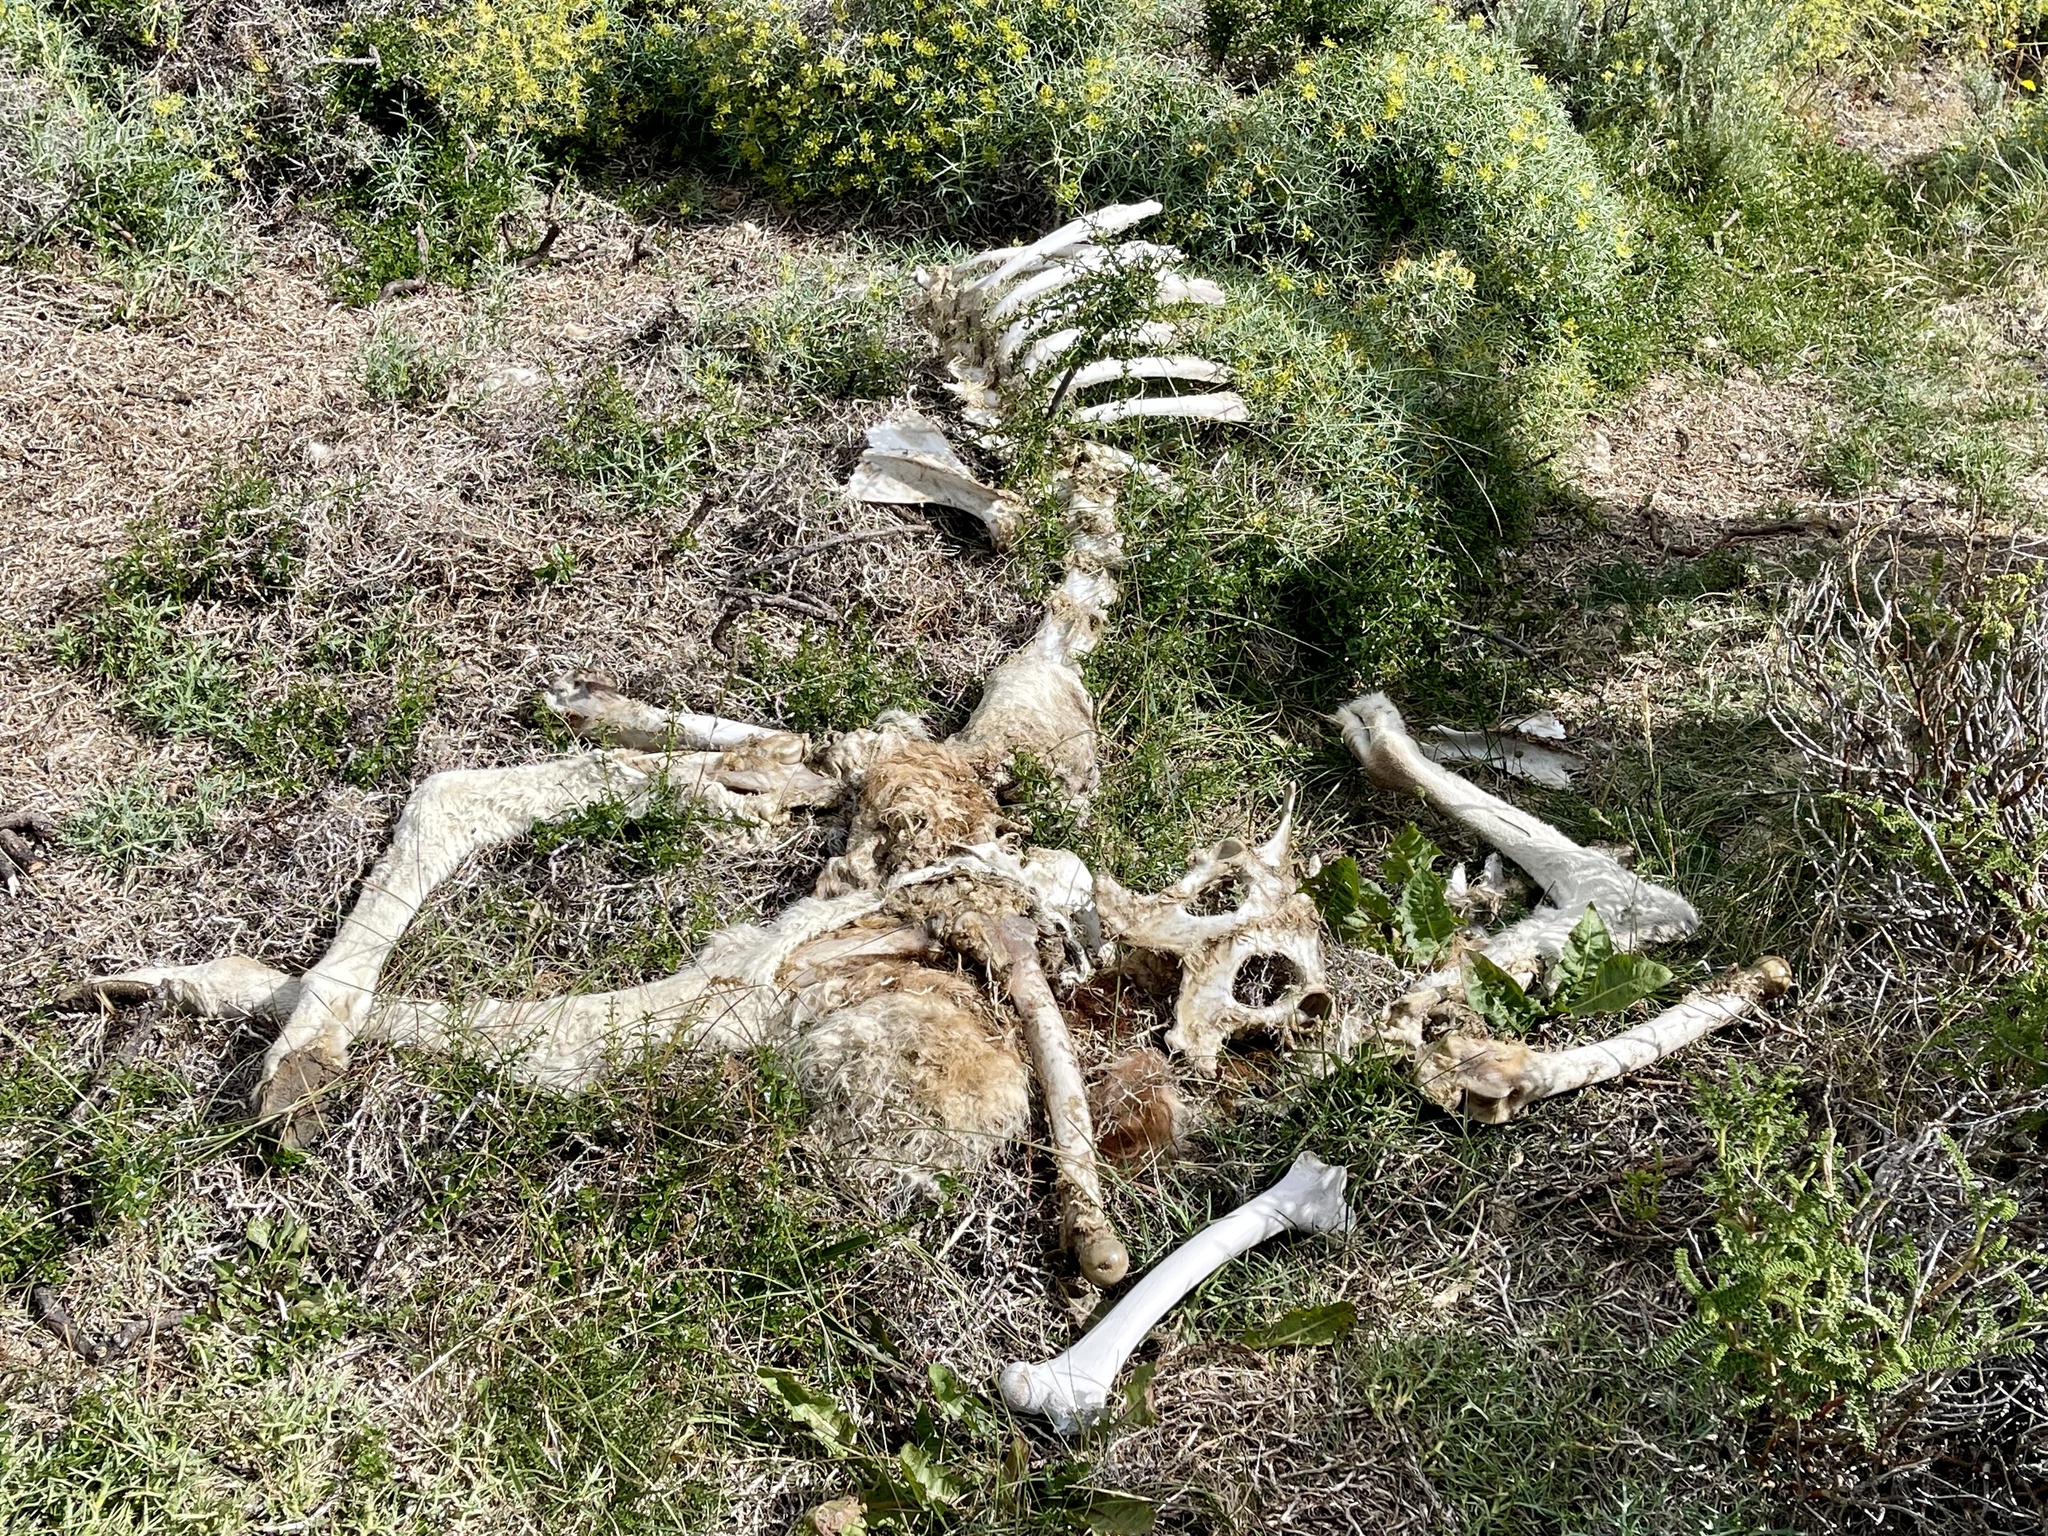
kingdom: Animalia
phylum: Chordata
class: Mammalia
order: Artiodactyla
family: Camelidae
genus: Lama
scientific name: Lama glama
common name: Llama
